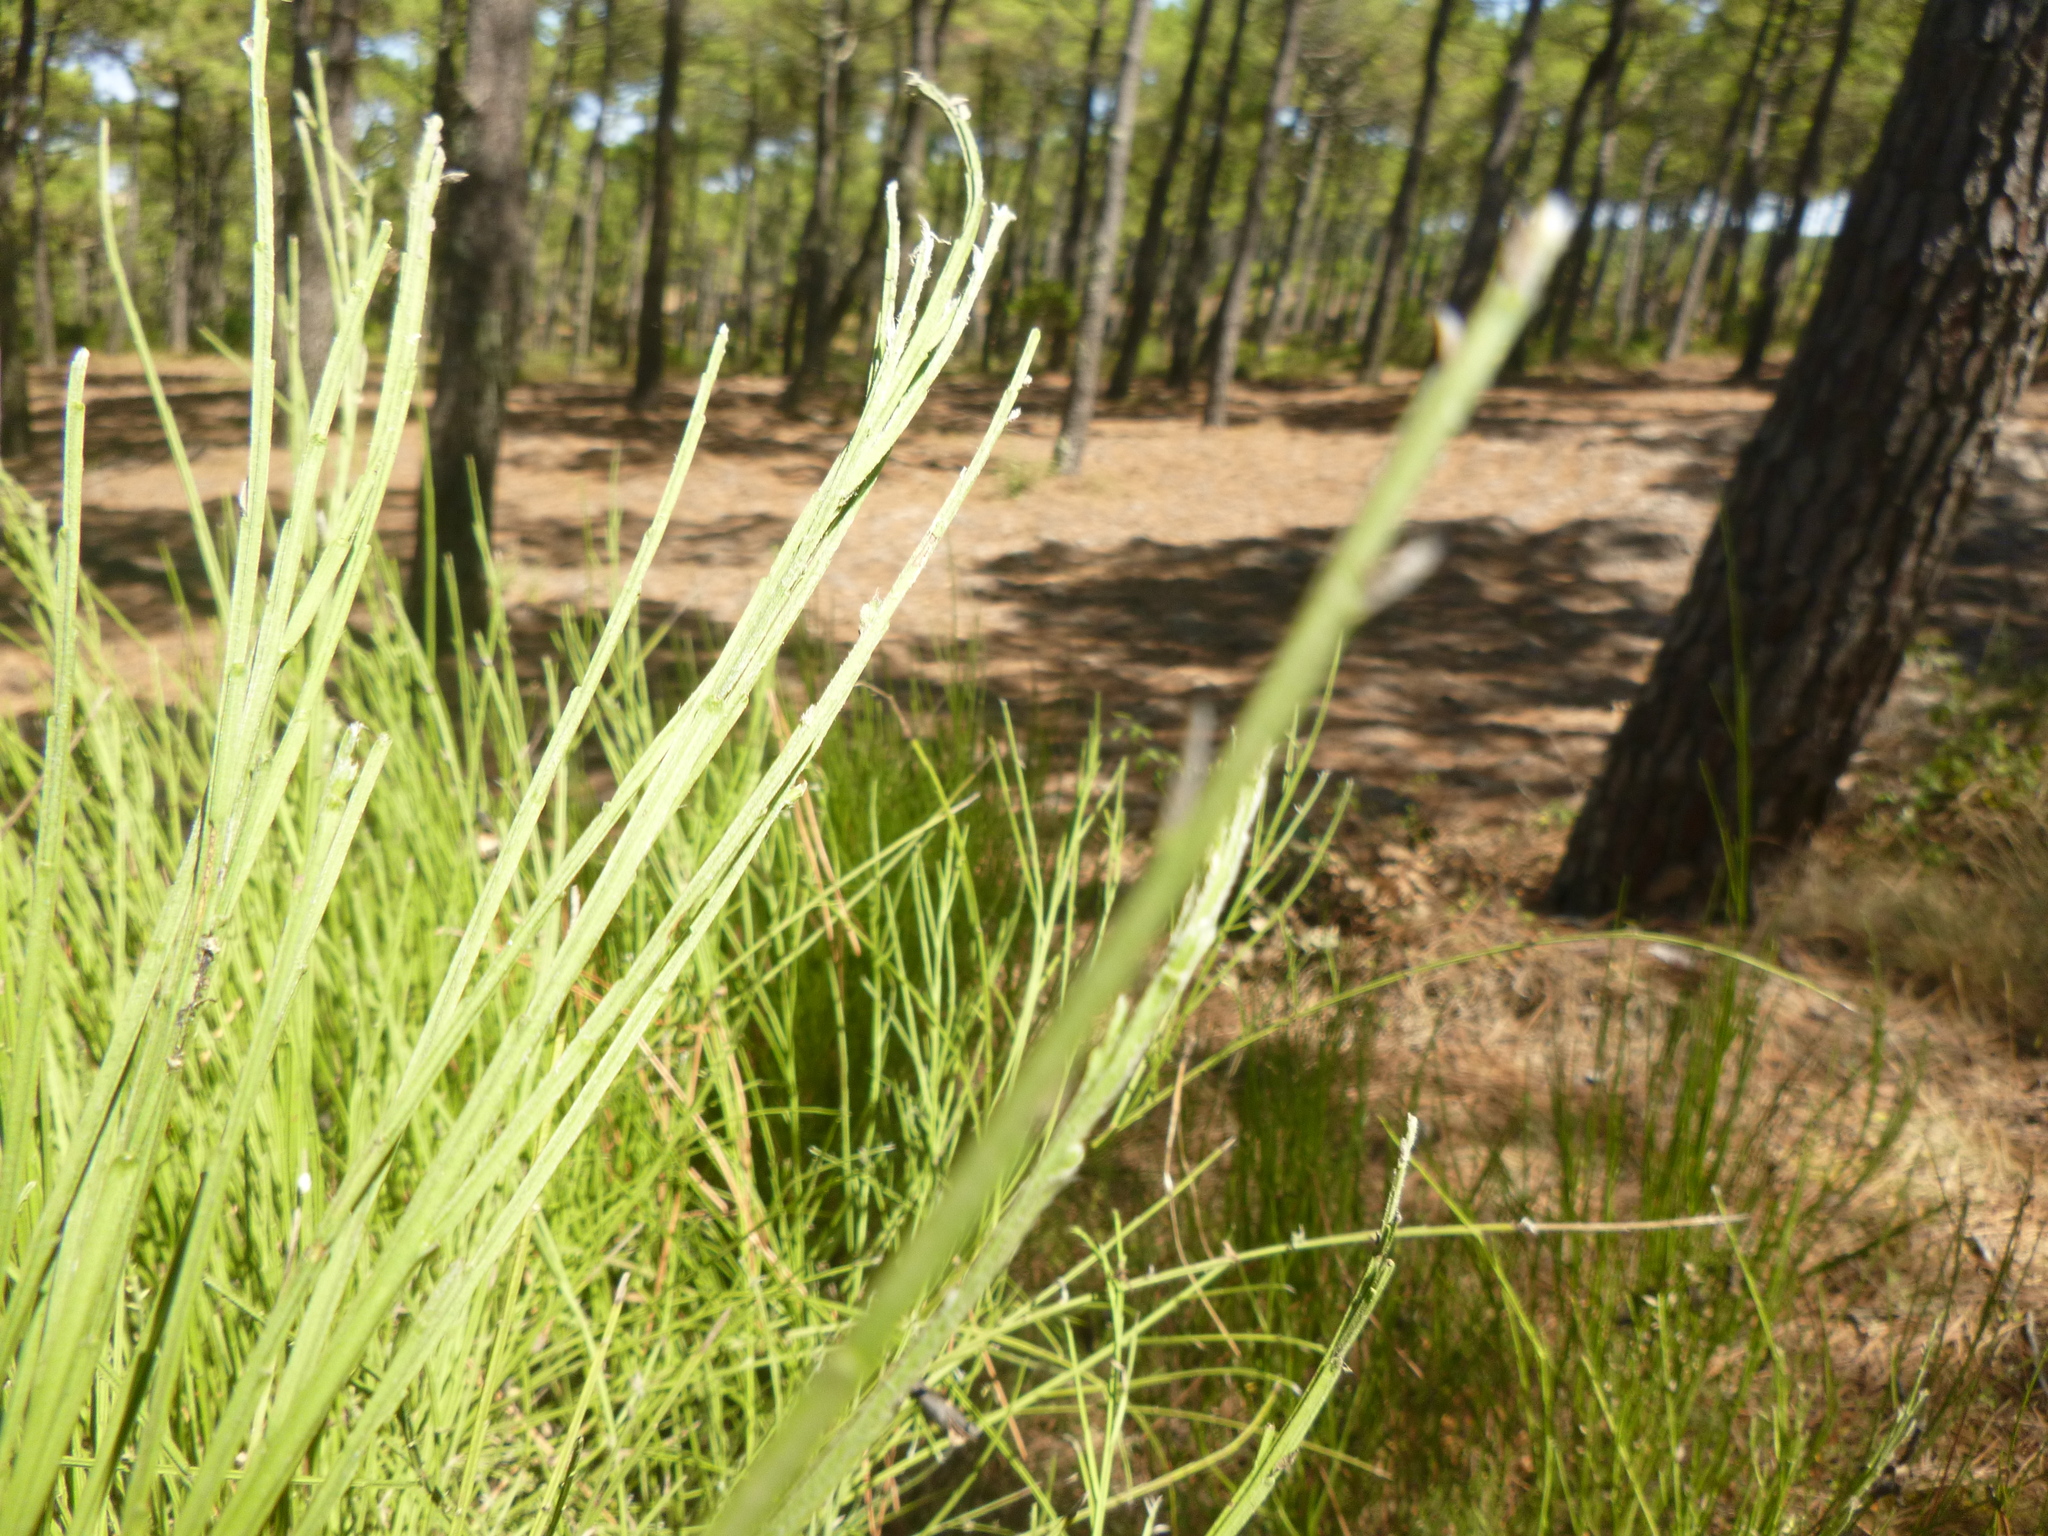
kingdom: Plantae
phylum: Tracheophyta
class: Magnoliopsida
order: Fabales
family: Fabaceae
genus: Cytisus
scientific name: Cytisus scoparius
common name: Scotch broom
